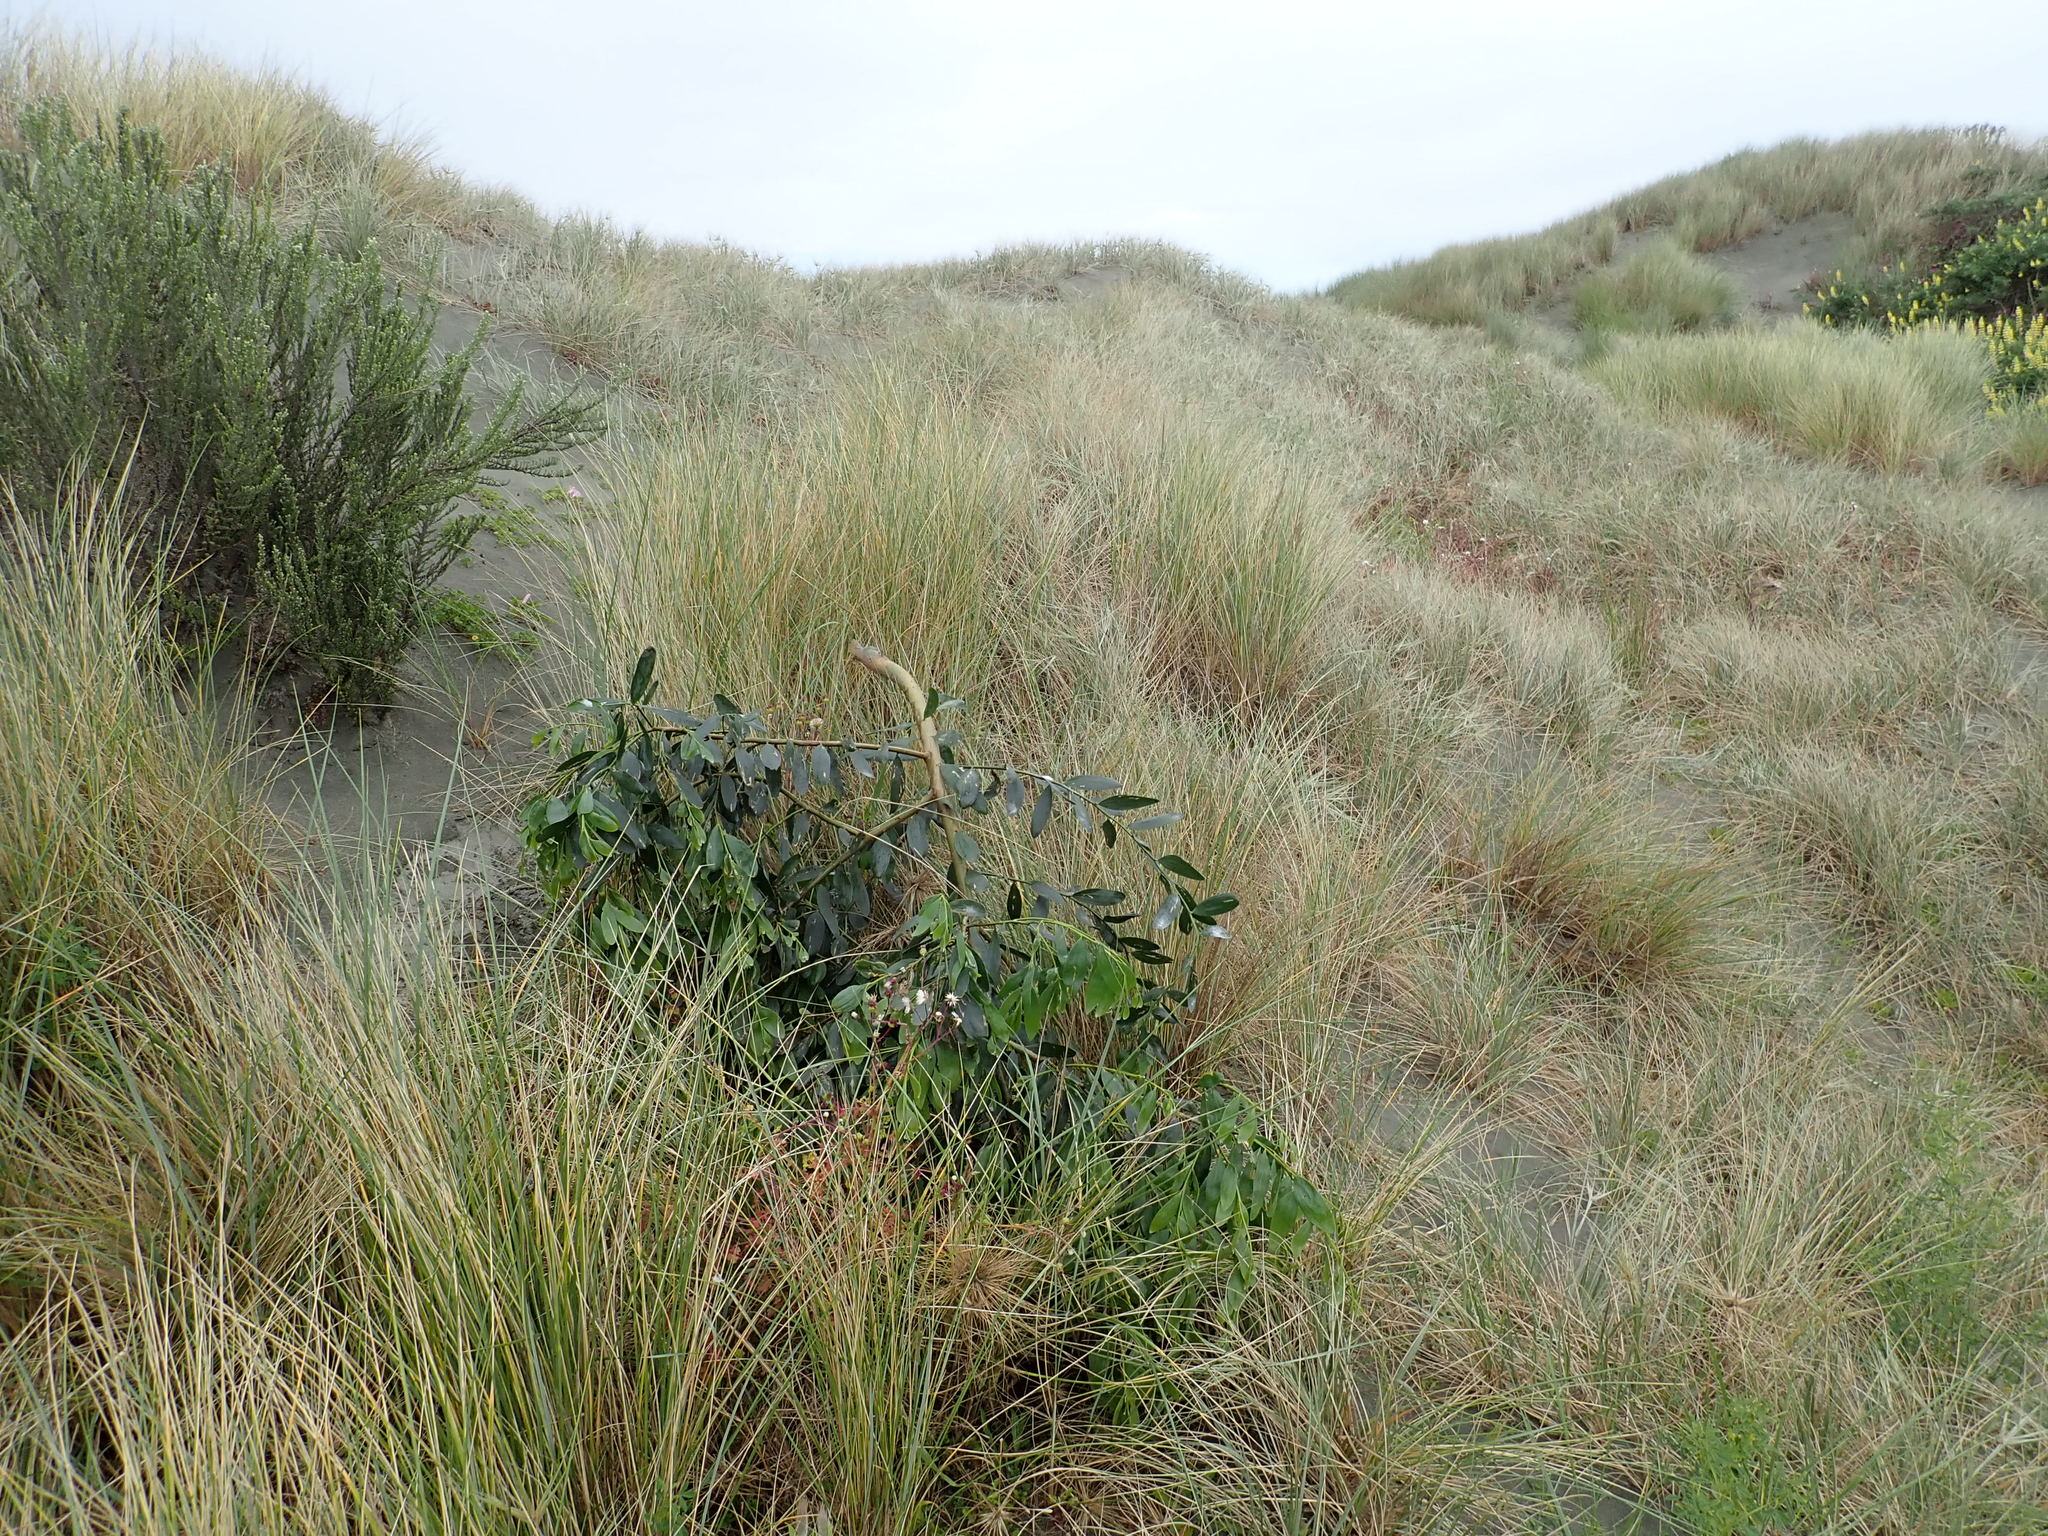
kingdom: Plantae
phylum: Tracheophyta
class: Magnoliopsida
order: Fabales
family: Fabaceae
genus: Acacia
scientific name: Acacia longifolia
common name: Sydney golden wattle
